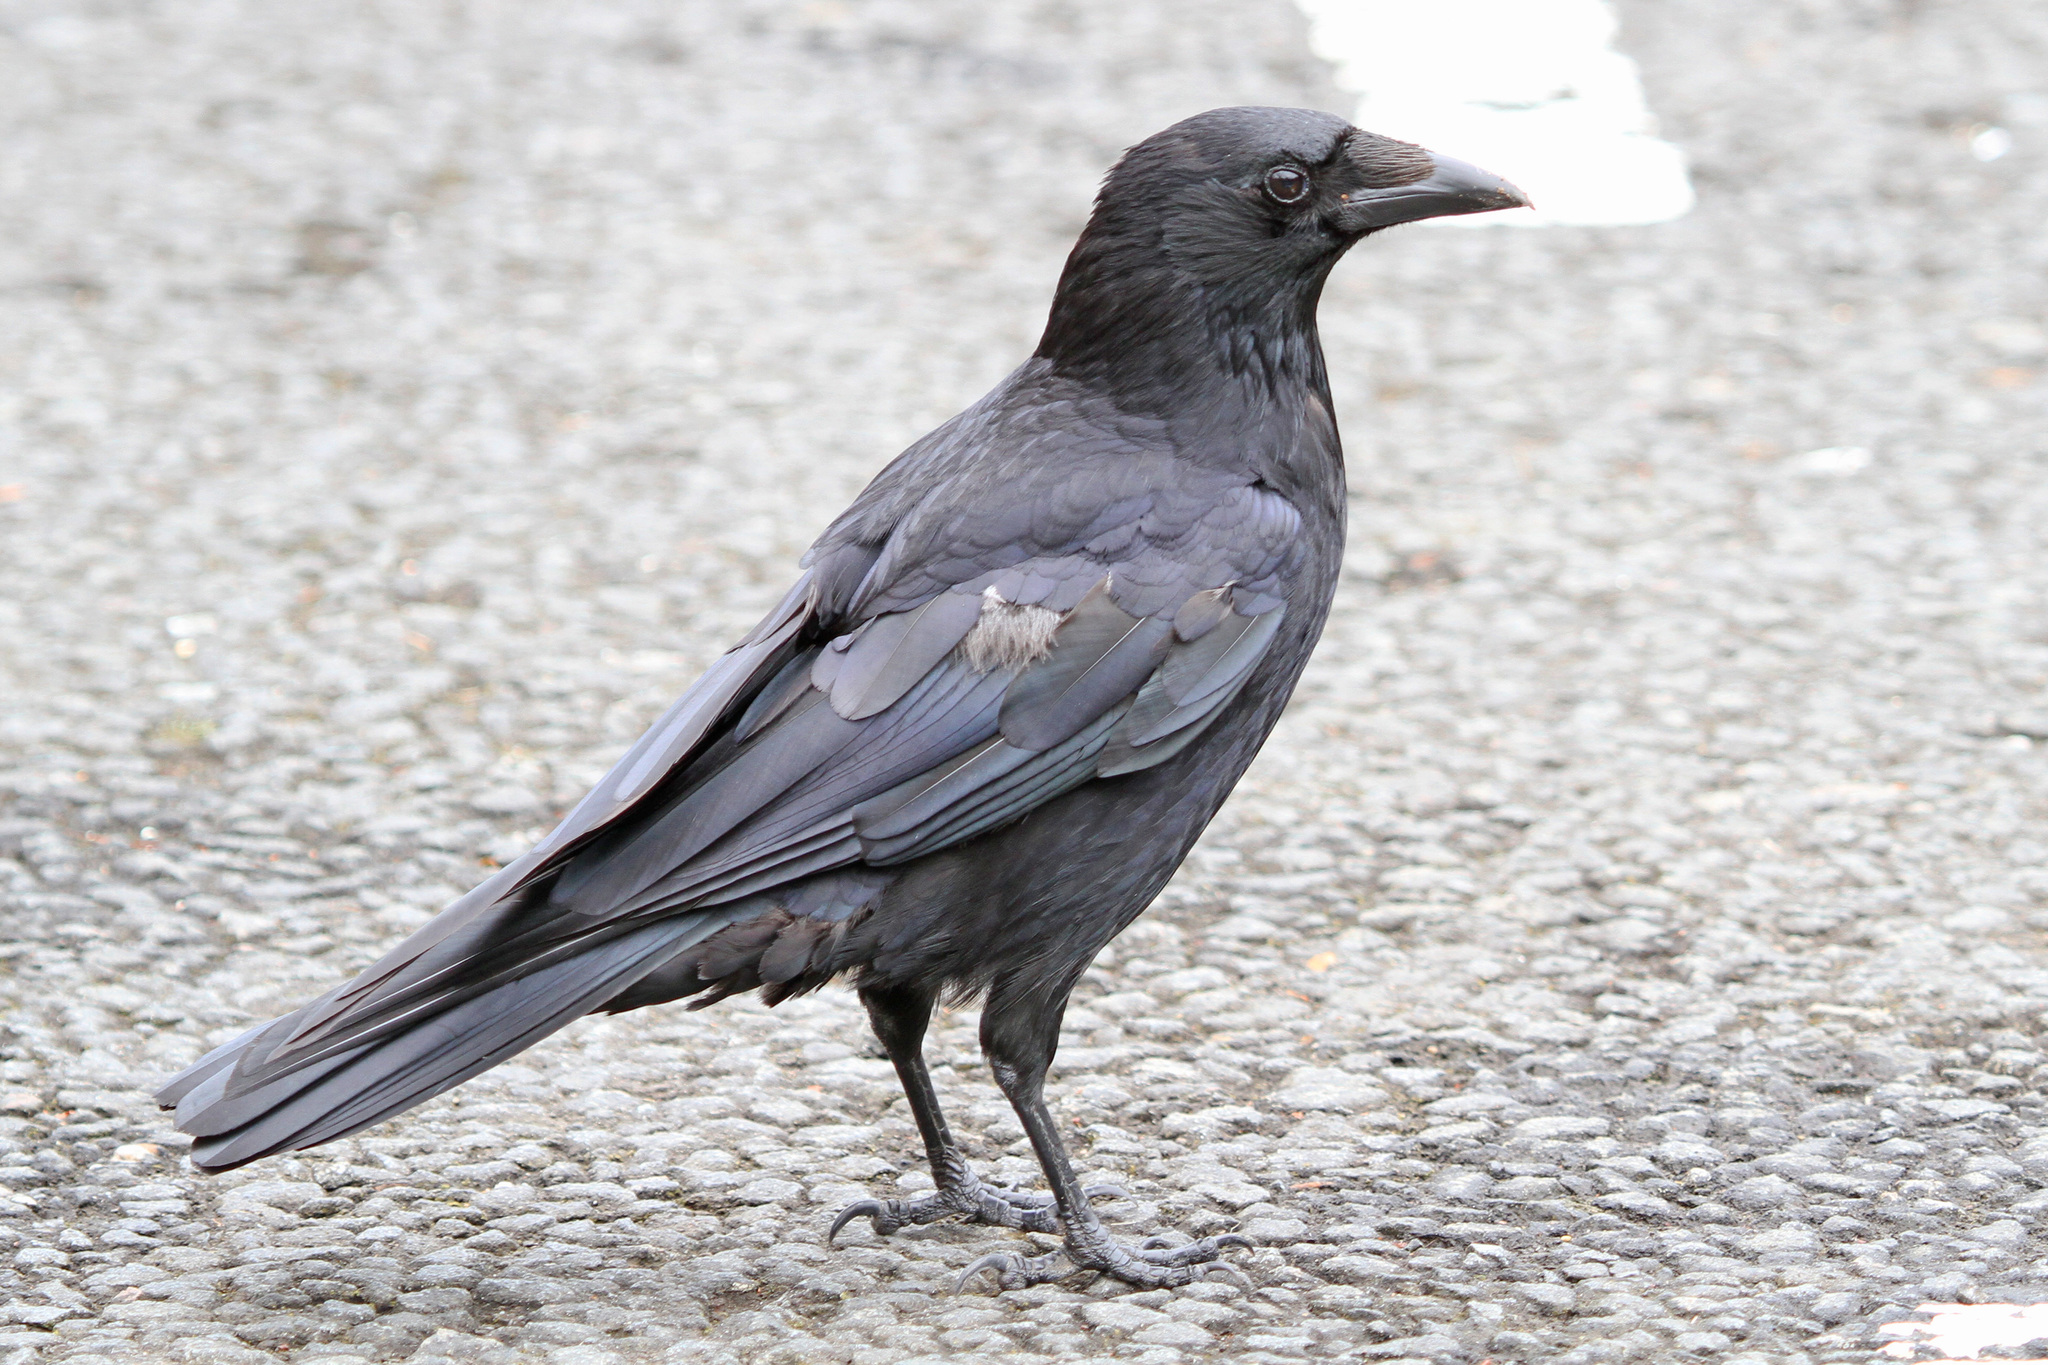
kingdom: Animalia
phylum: Chordata
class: Aves
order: Passeriformes
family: Corvidae
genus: Corvus
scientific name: Corvus corone
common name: Carrion crow
